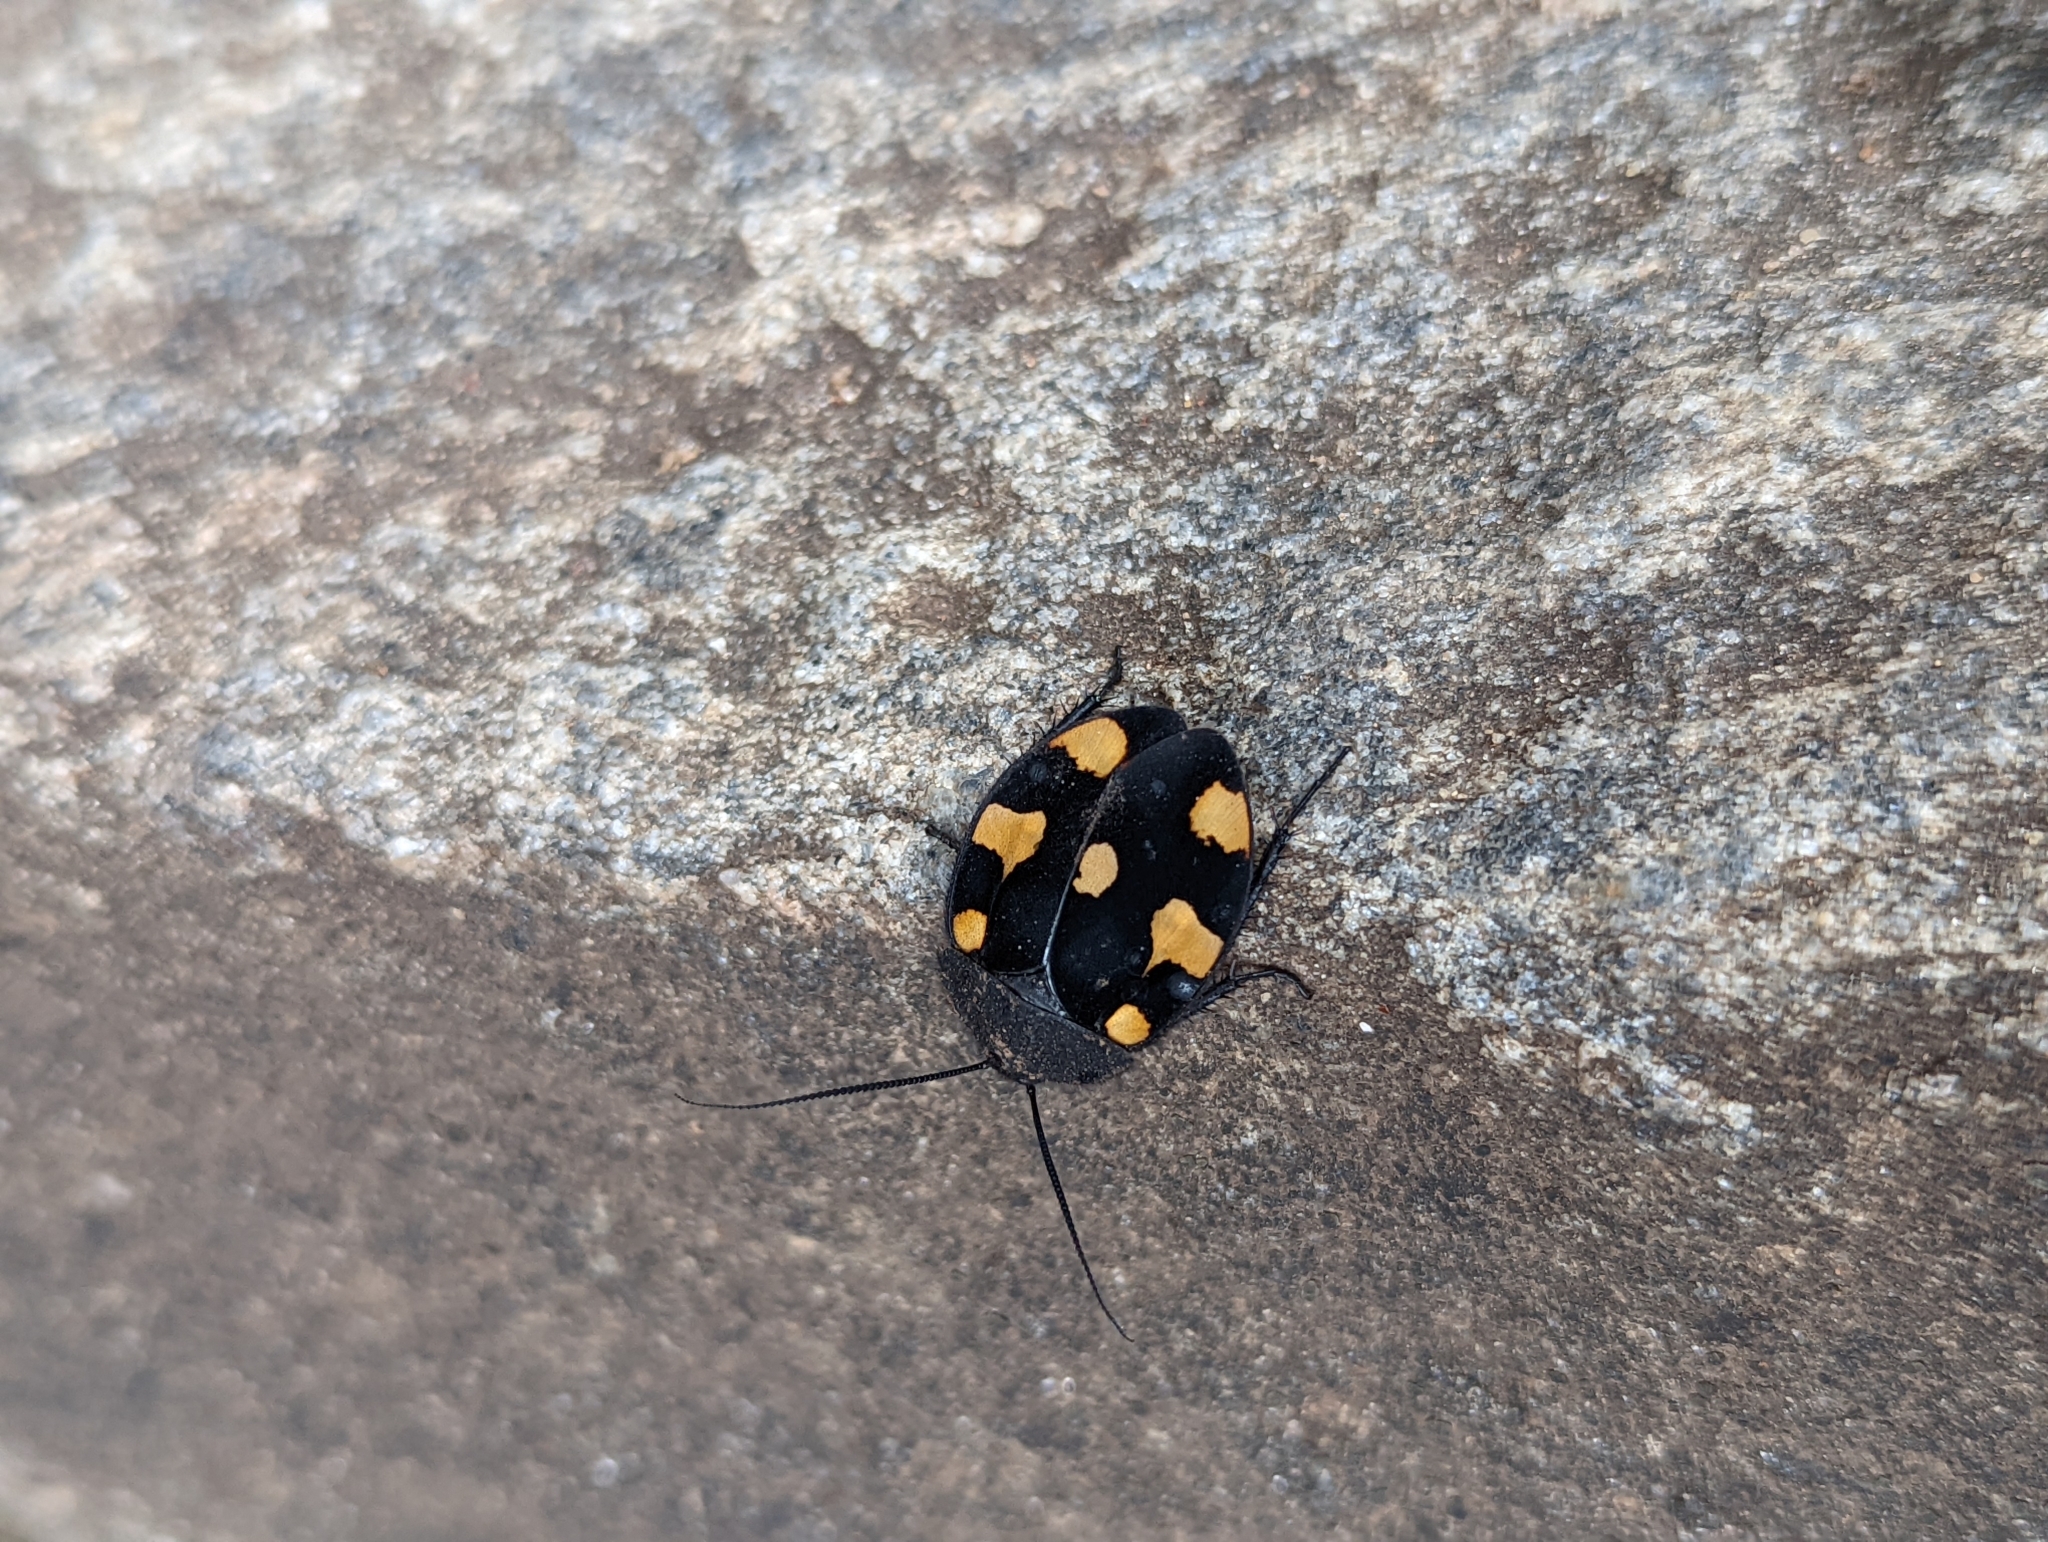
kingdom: Animalia
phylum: Arthropoda
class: Insecta
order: Blattodea
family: Corydiidae
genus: Therea
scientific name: Therea regularis
